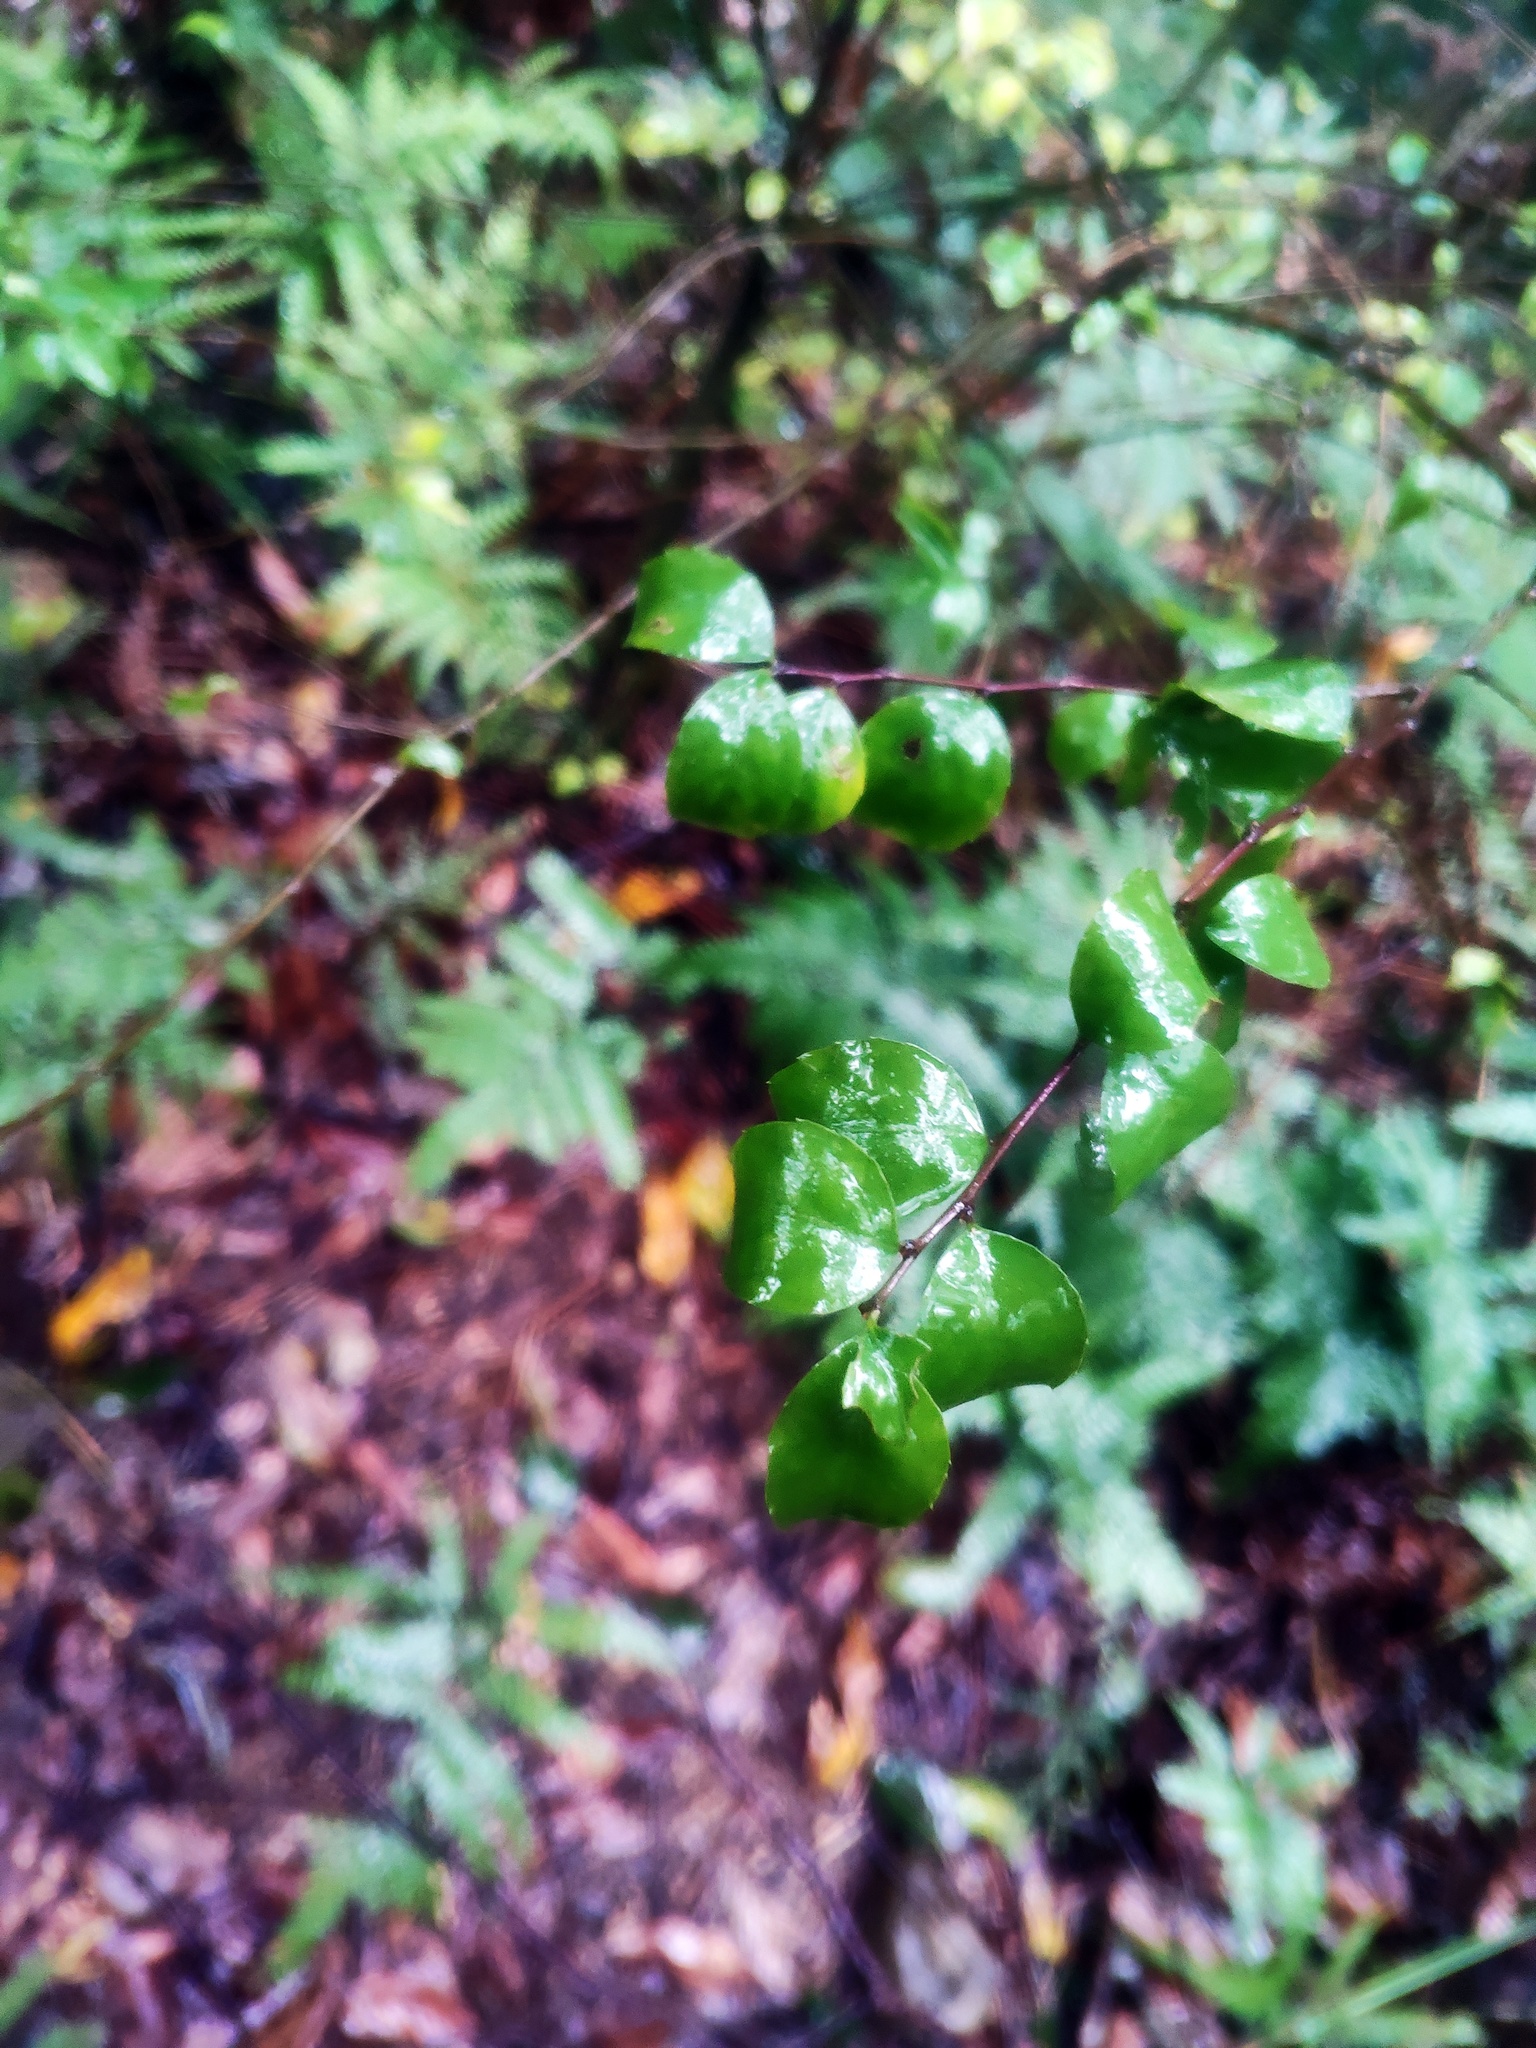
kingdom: Plantae
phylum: Tracheophyta
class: Magnoliopsida
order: Aquifoliales
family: Aquifoliaceae
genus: Ilex
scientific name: Ilex asprella
